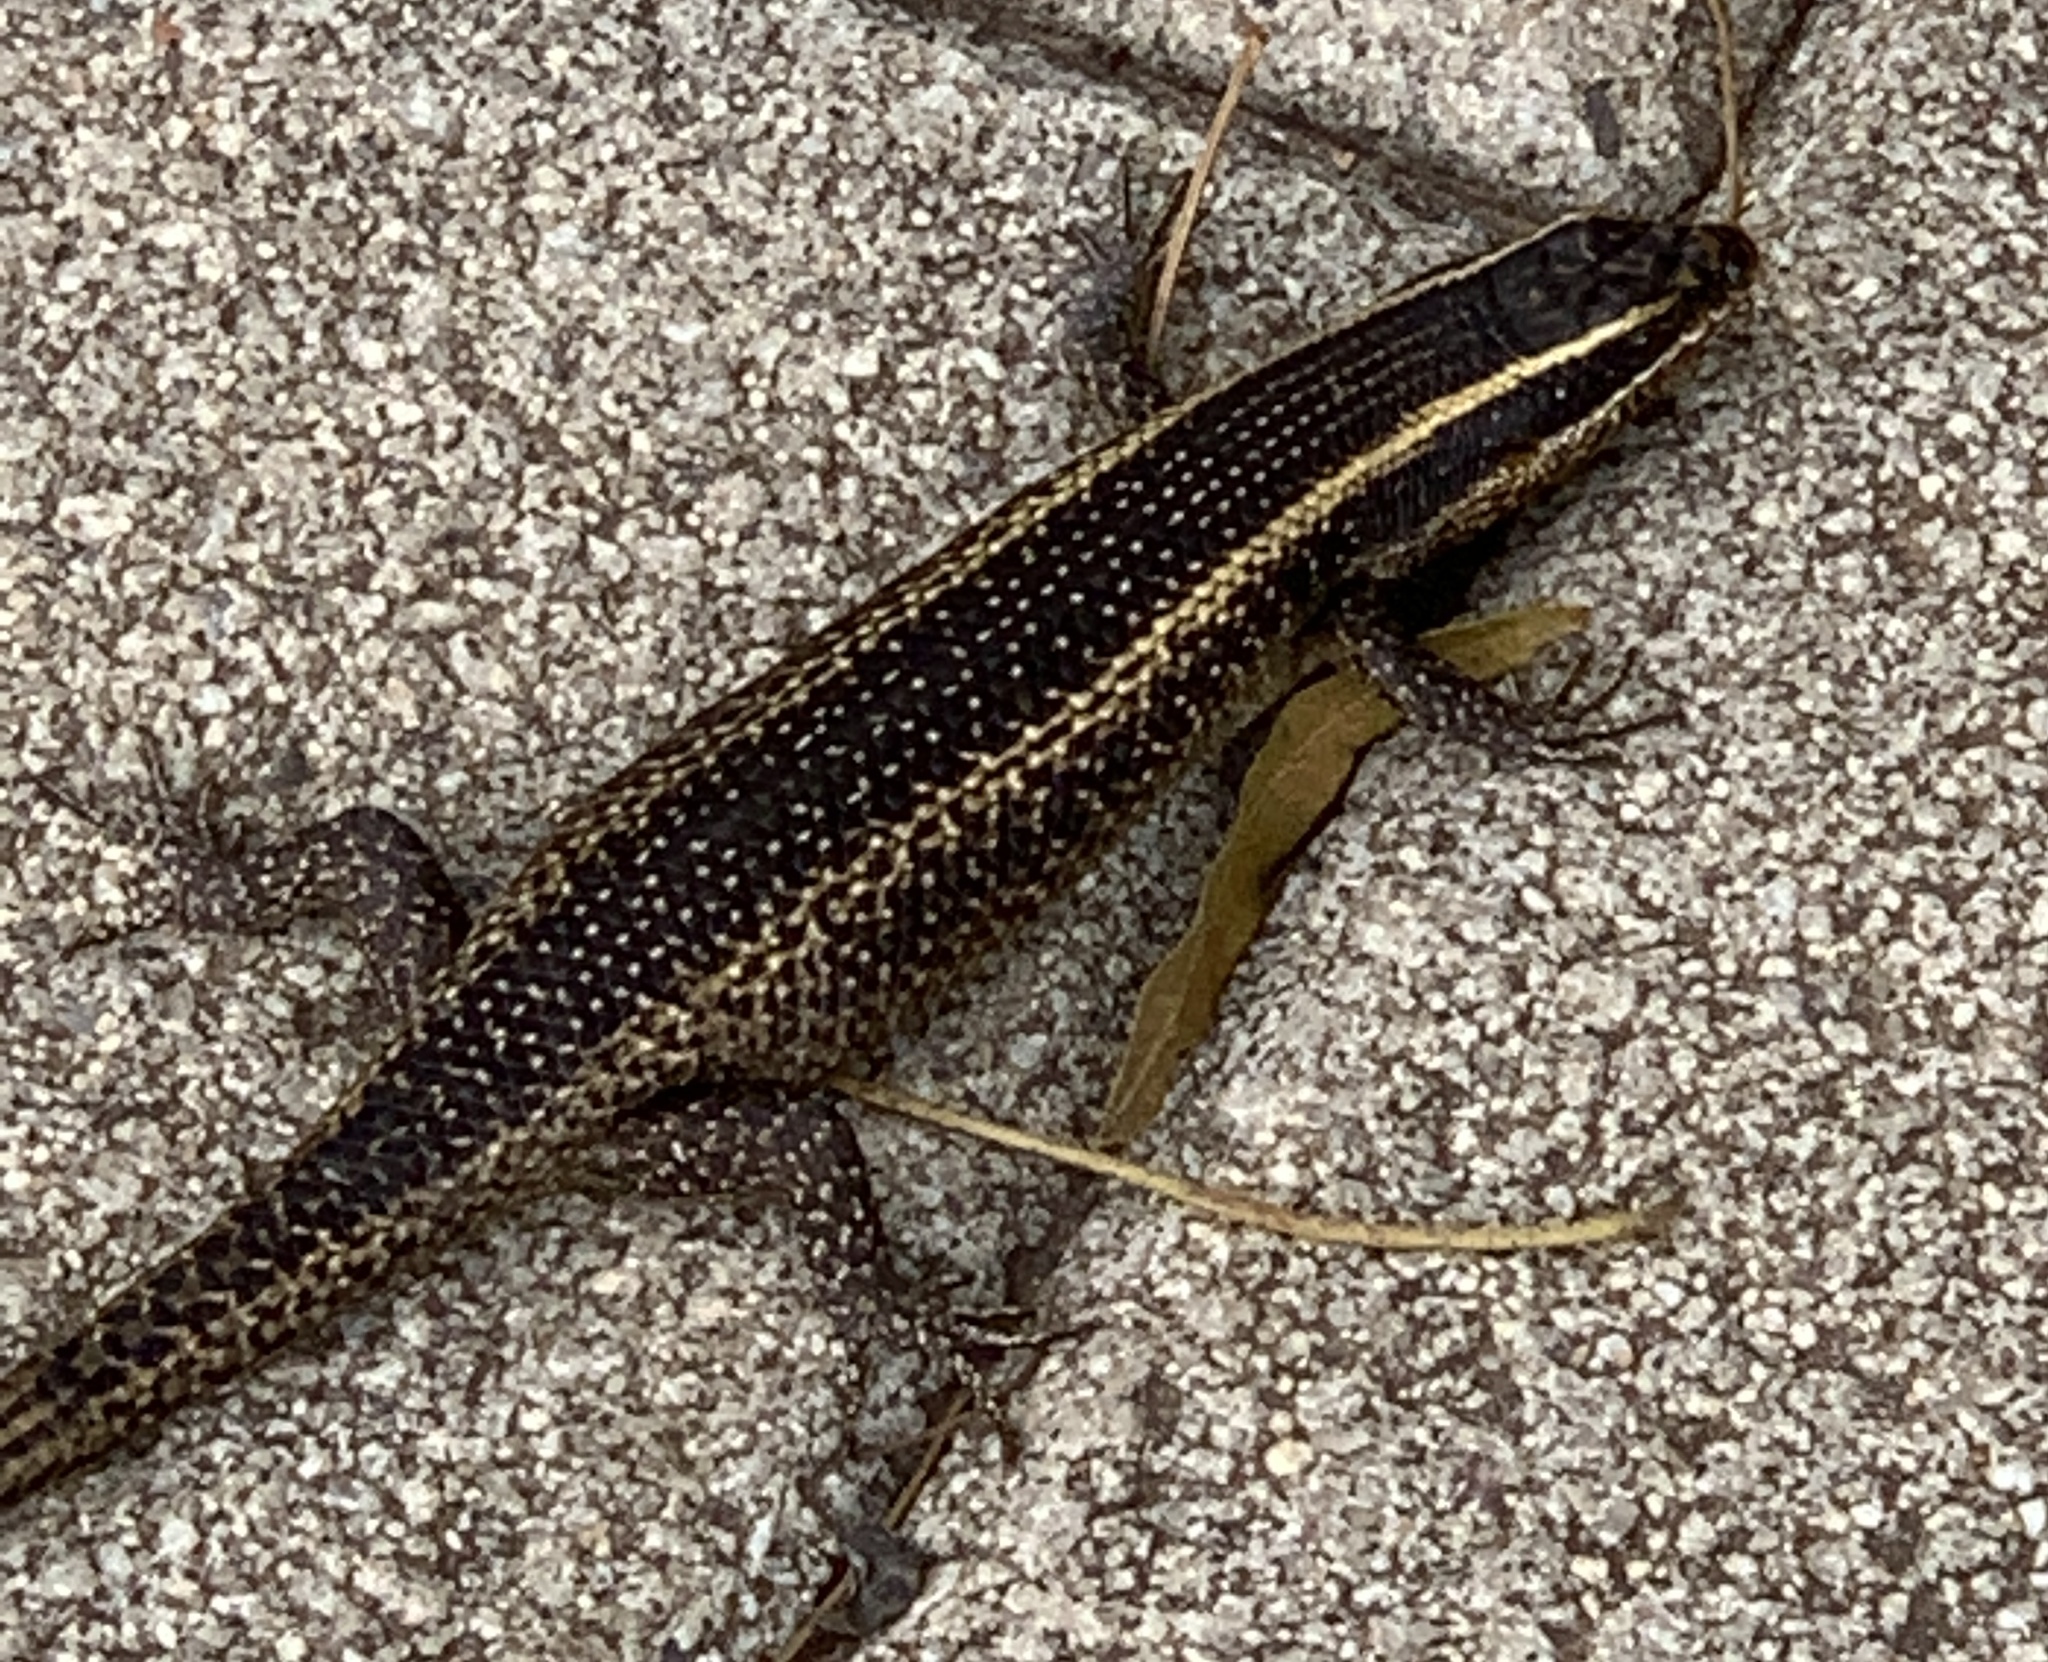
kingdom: Animalia
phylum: Chordata
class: Squamata
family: Scincidae
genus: Trachylepis
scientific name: Trachylepis punctatissima
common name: Montane speckled skink
